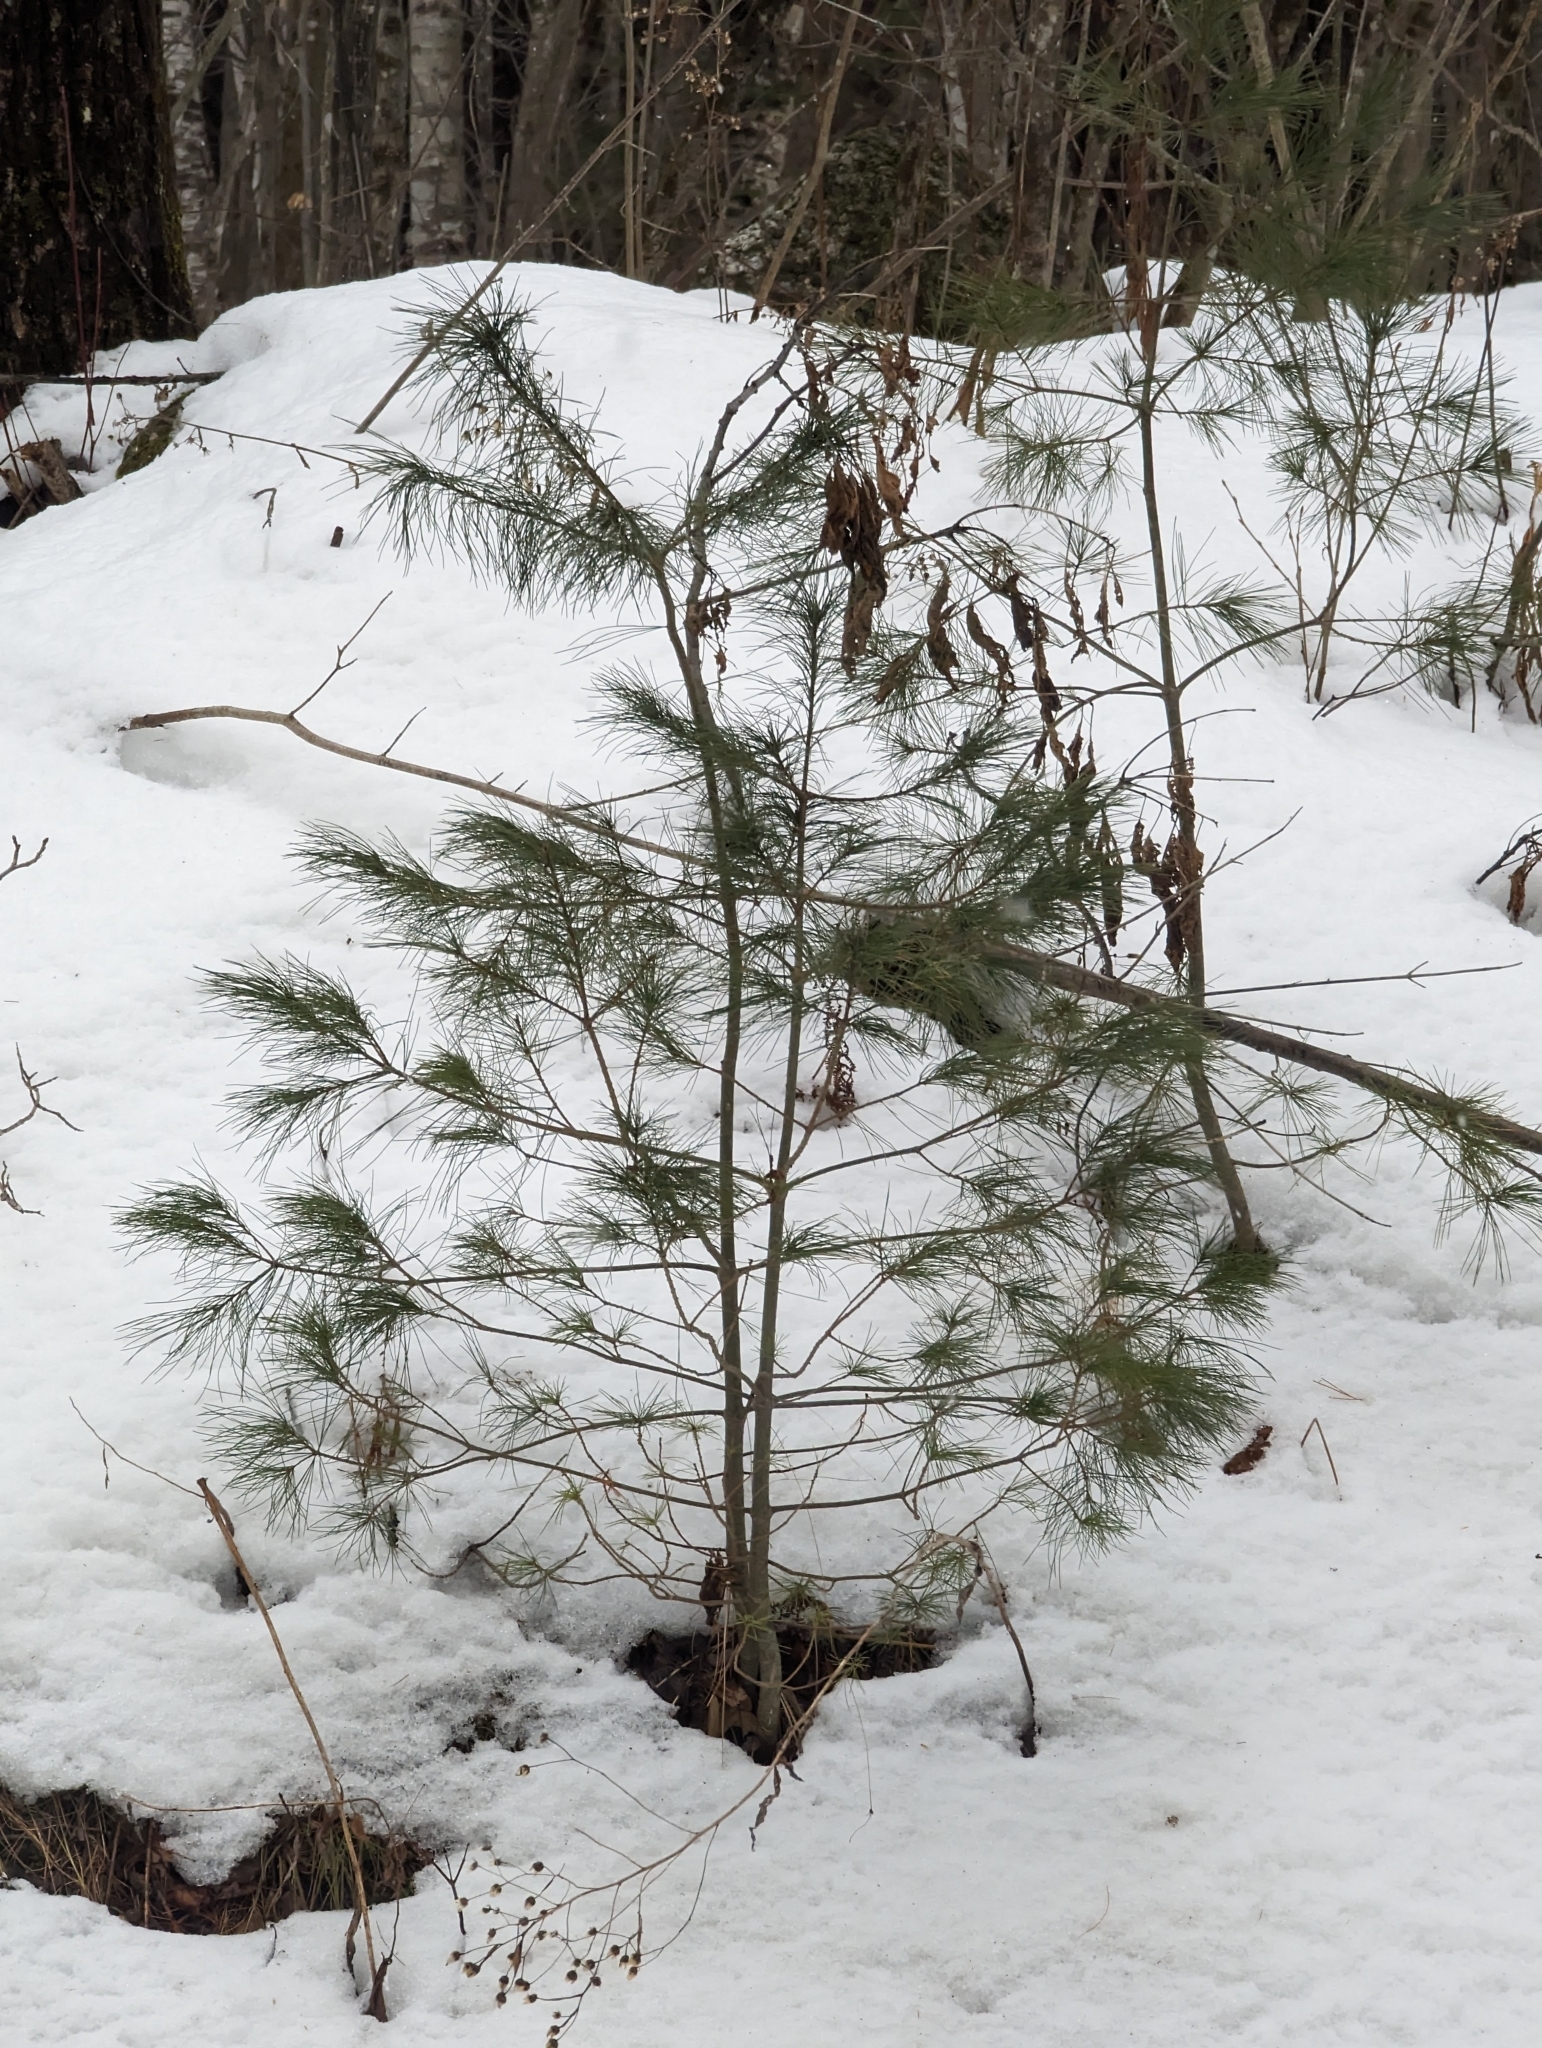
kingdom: Plantae
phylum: Tracheophyta
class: Pinopsida
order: Pinales
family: Pinaceae
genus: Pinus
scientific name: Pinus strobus
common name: Weymouth pine
